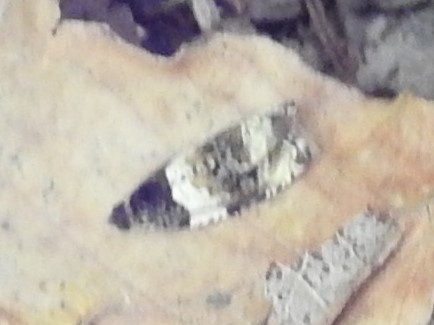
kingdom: Animalia
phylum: Arthropoda
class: Insecta
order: Lepidoptera
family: Tortricidae
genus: Olethreutes
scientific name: Olethreutes fasciatana
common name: Banded olethreutes moth
